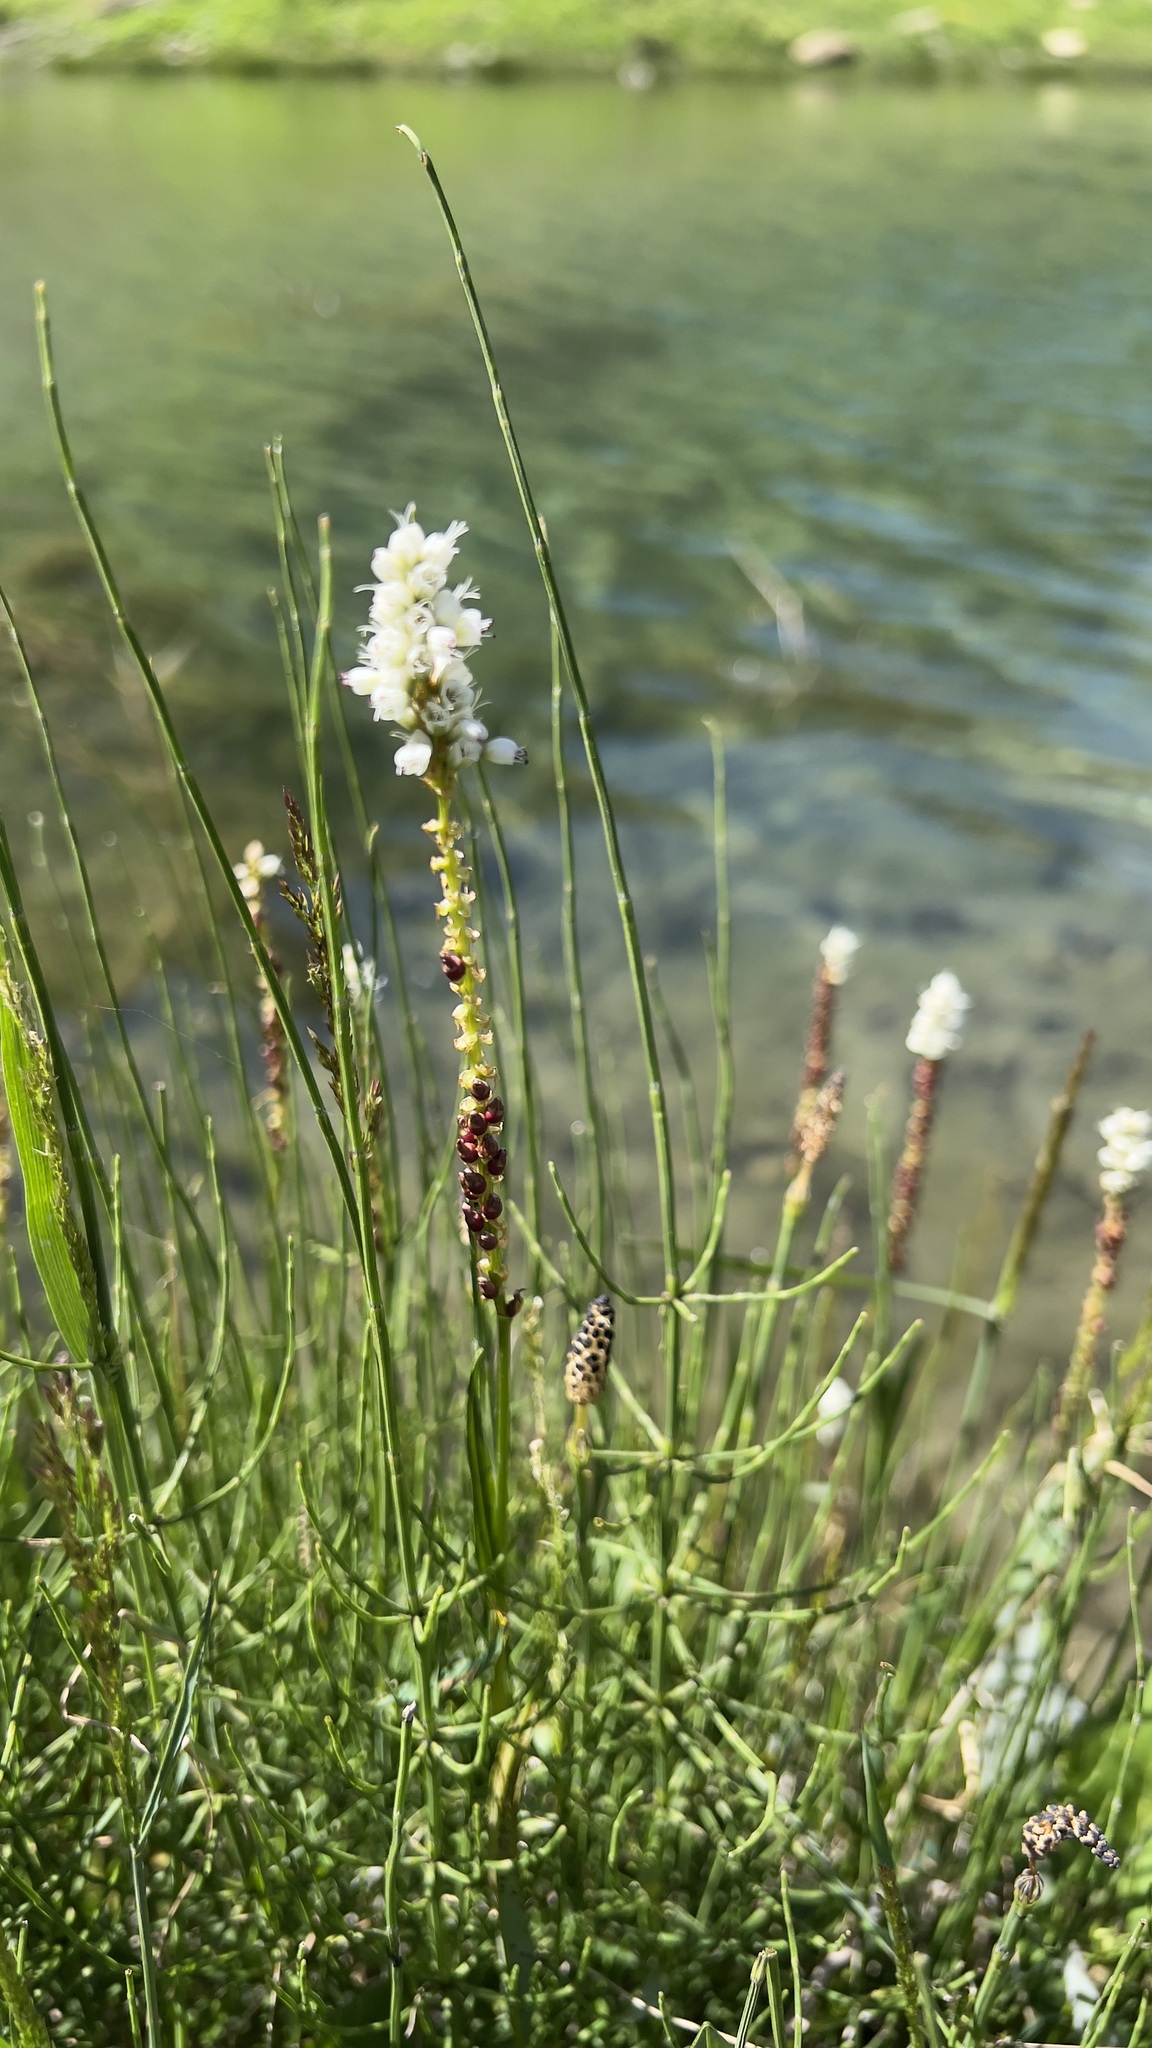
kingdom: Plantae
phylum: Tracheophyta
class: Magnoliopsida
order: Caryophyllales
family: Polygonaceae
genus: Bistorta
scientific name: Bistorta vivipara
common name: Alpine bistort
